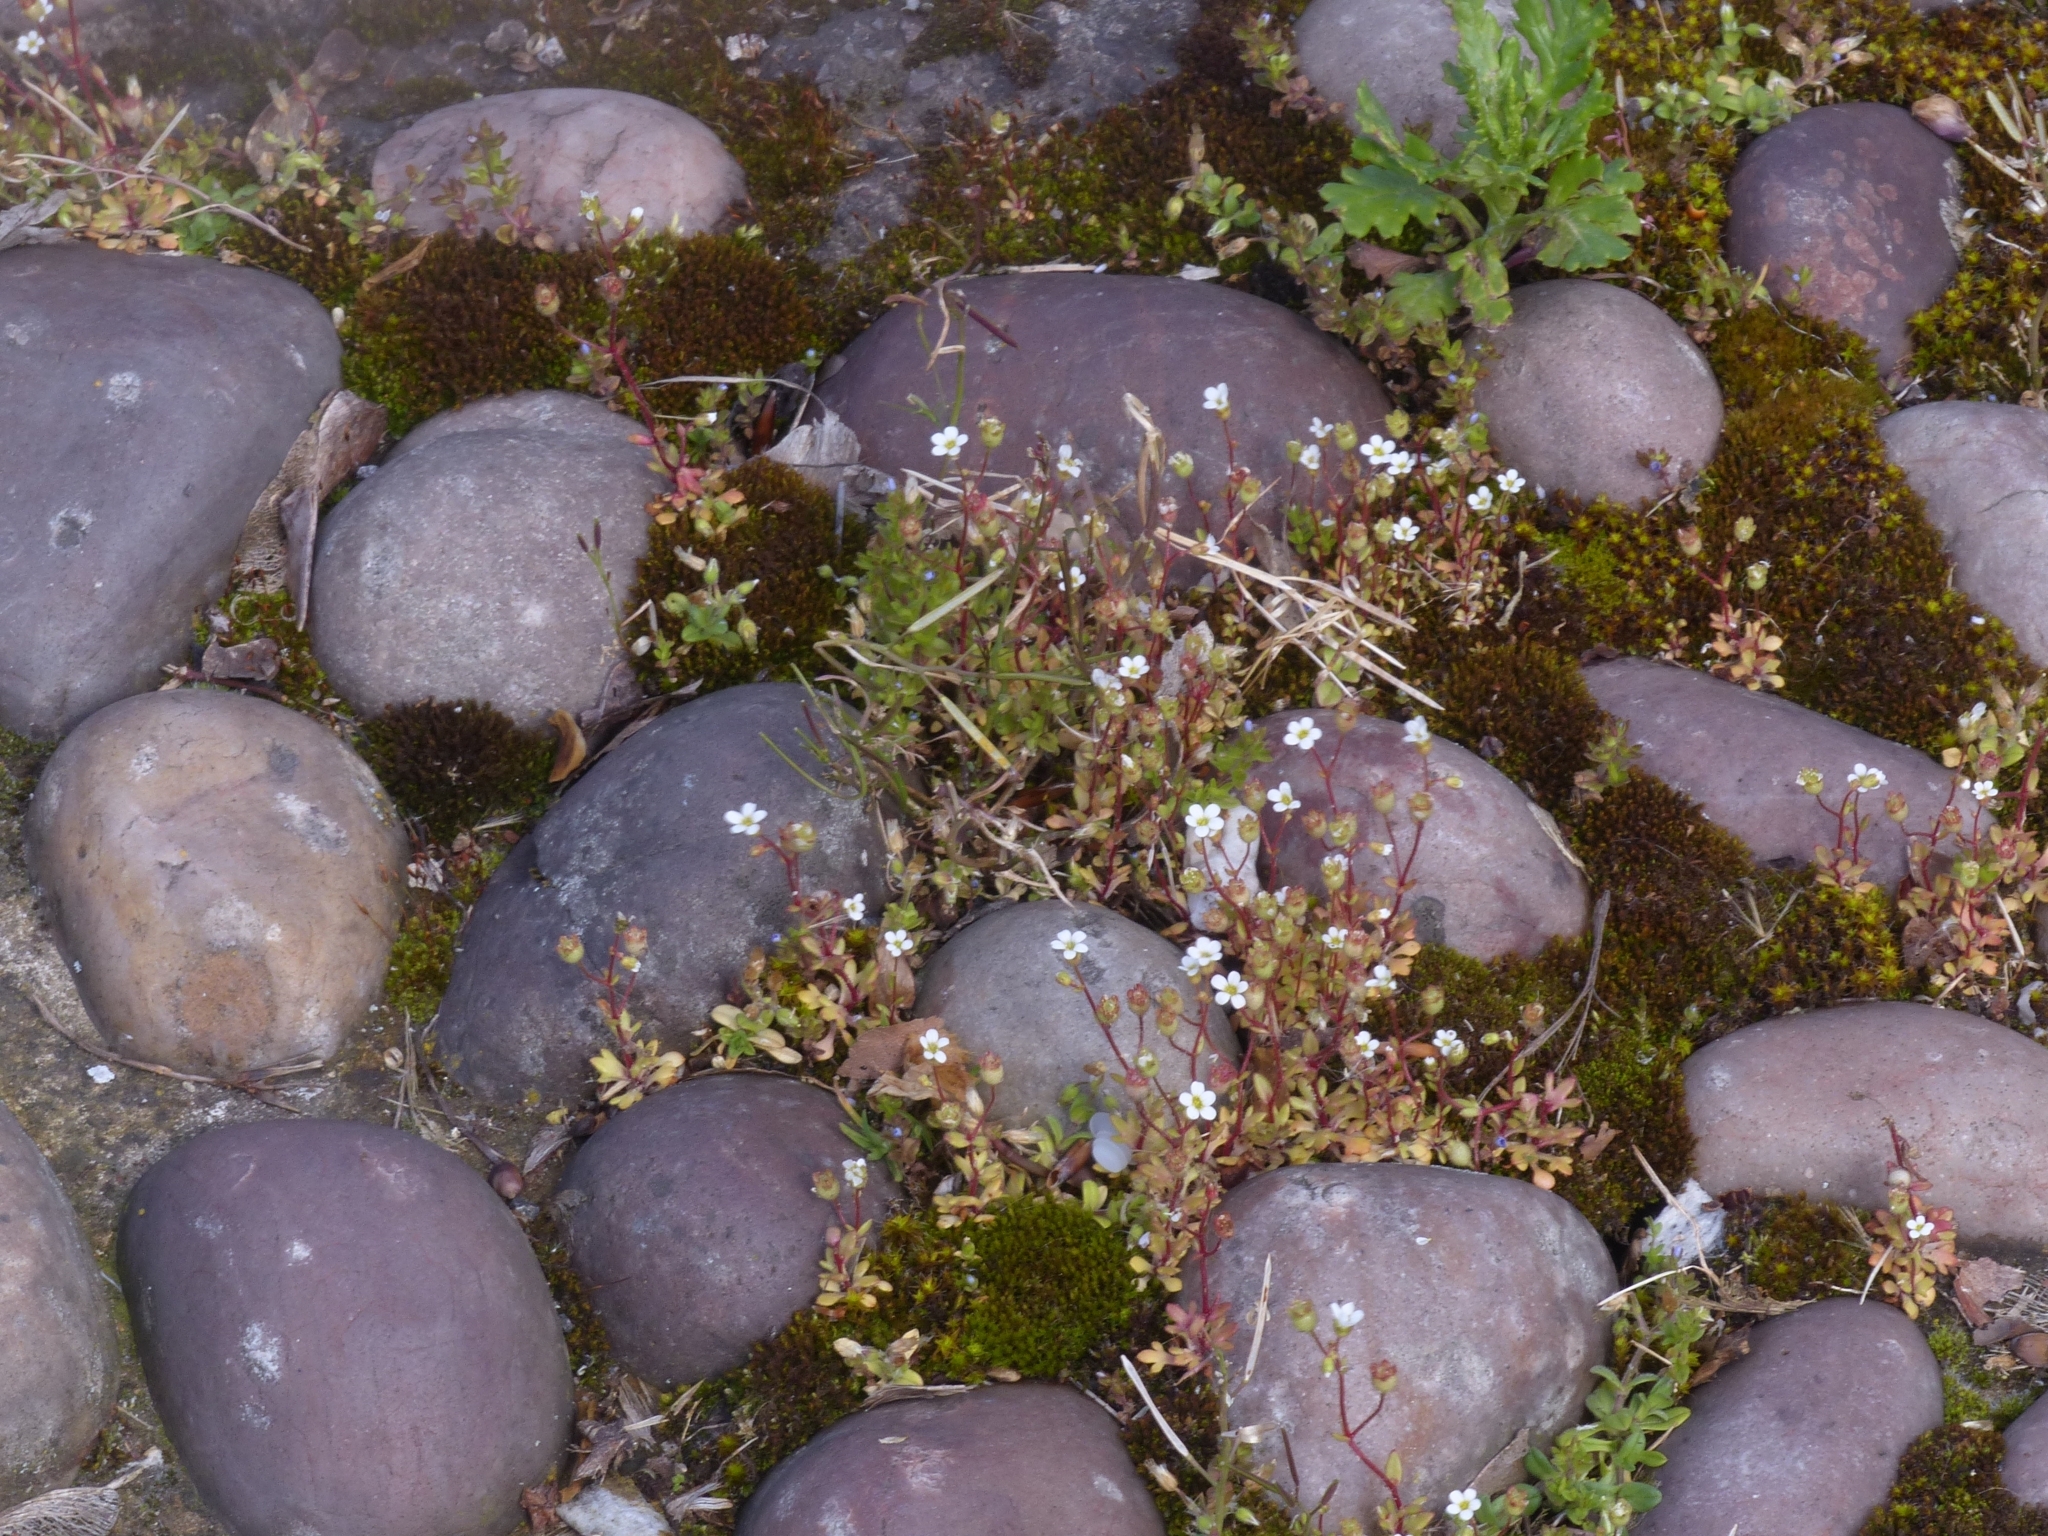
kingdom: Plantae
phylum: Tracheophyta
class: Magnoliopsida
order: Saxifragales
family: Saxifragaceae
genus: Saxifraga
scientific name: Saxifraga tridactylites
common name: Rue-leaved saxifrage
